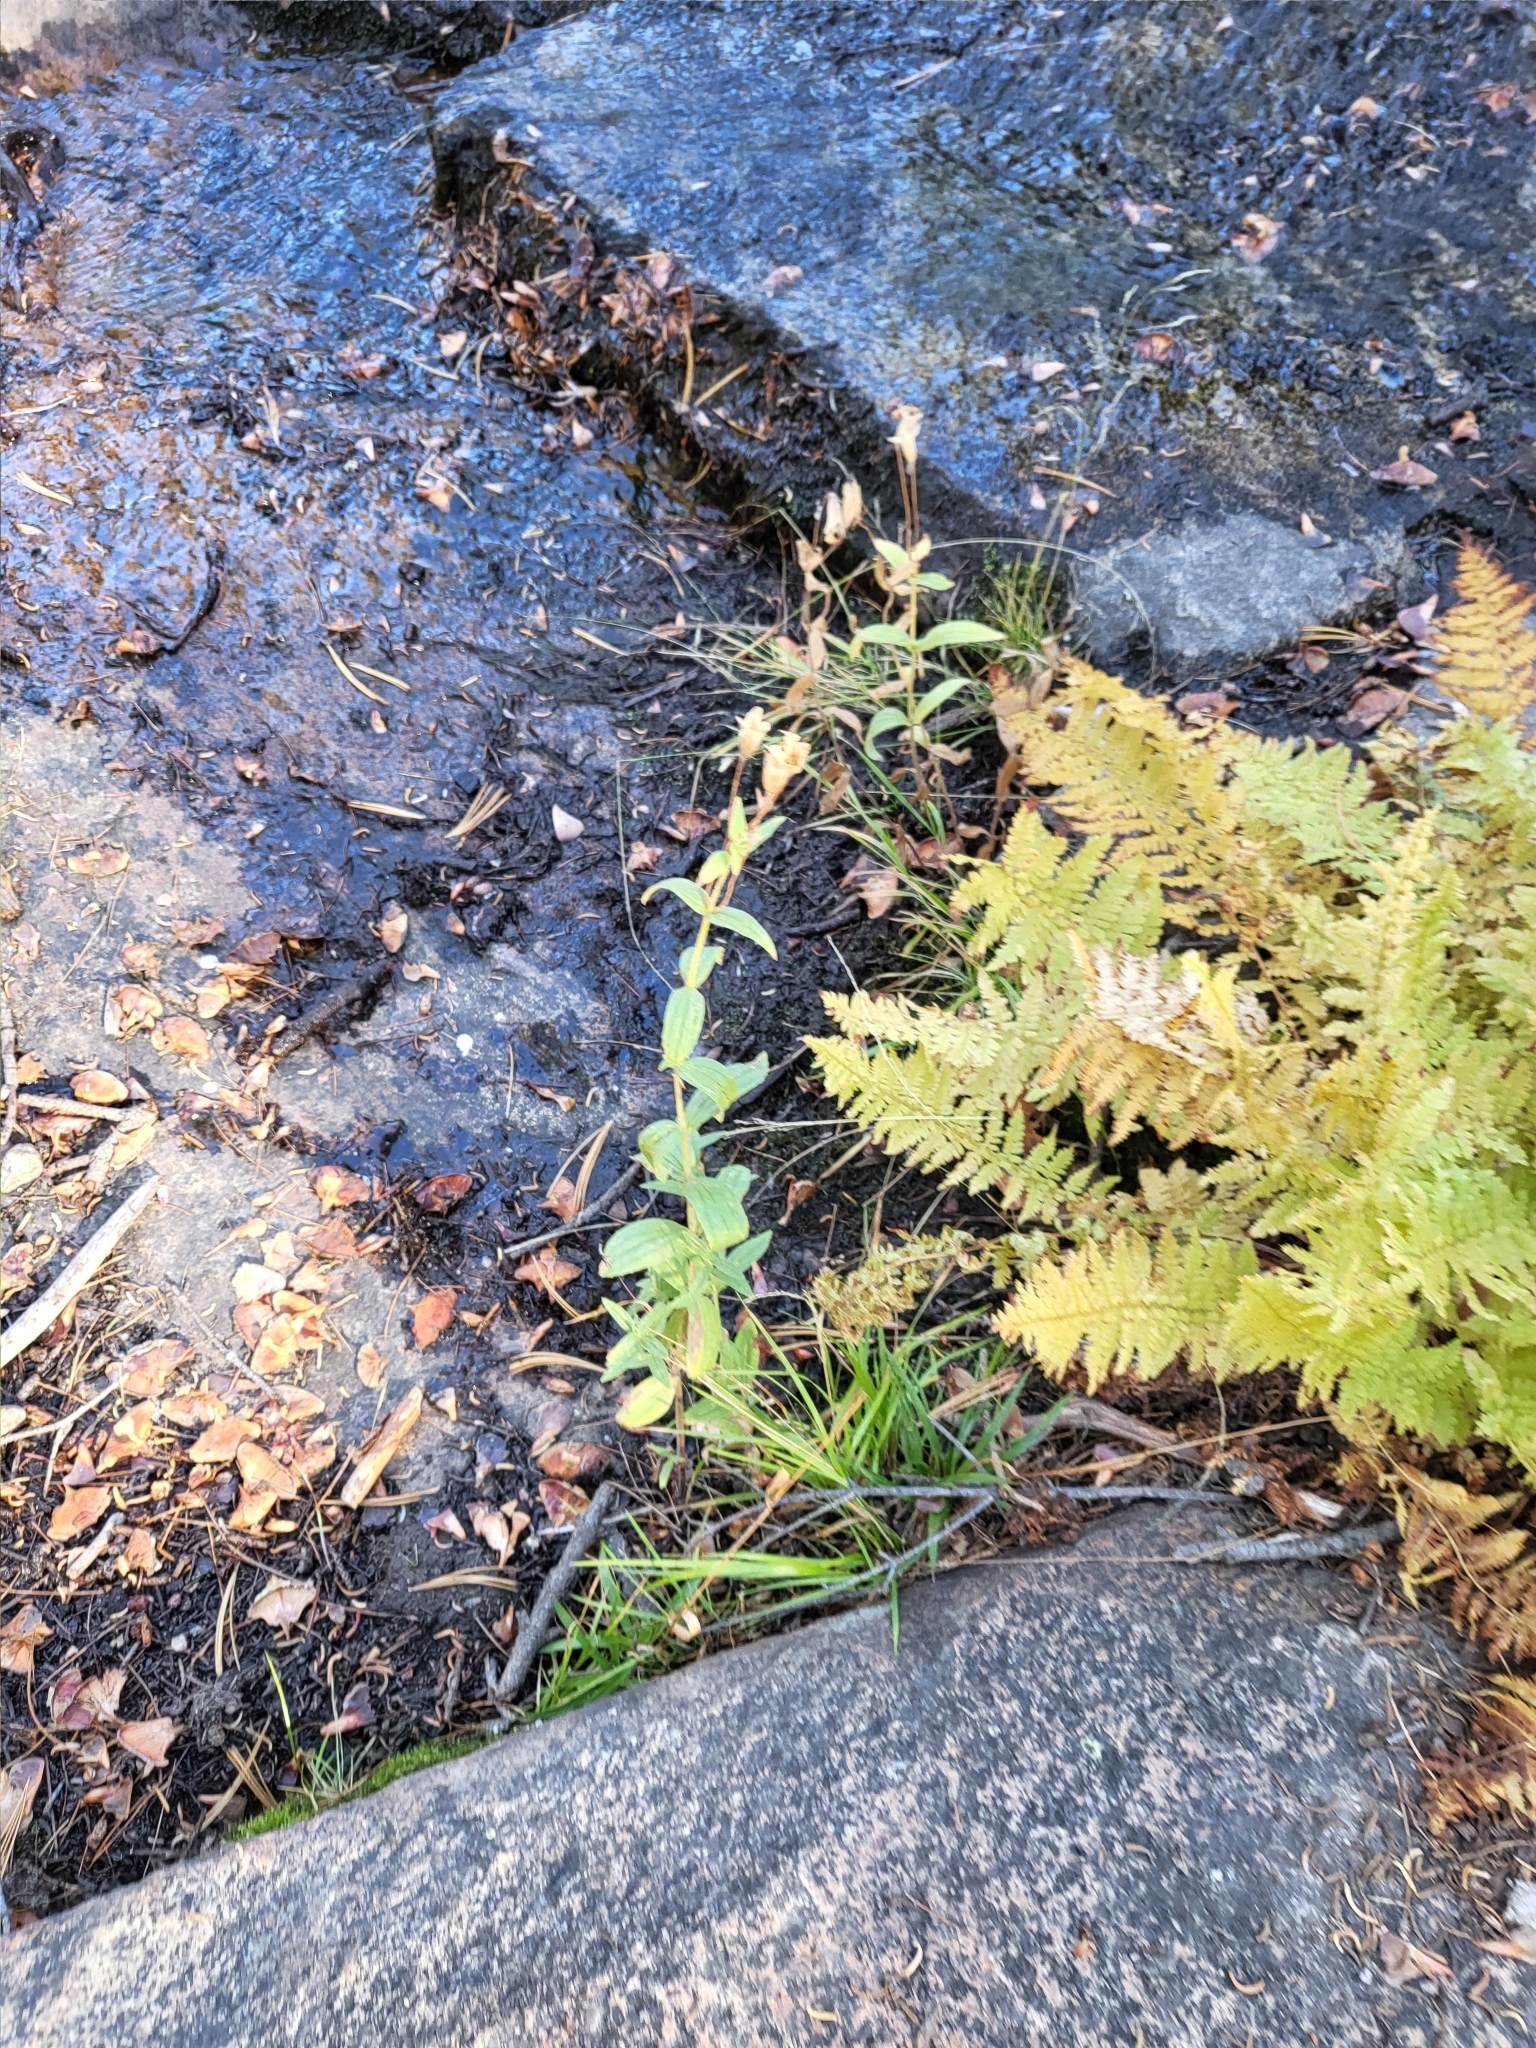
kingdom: Plantae
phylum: Tracheophyta
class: Magnoliopsida
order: Lamiales
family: Phrymaceae
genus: Erythranthe
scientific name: Erythranthe erubescens
